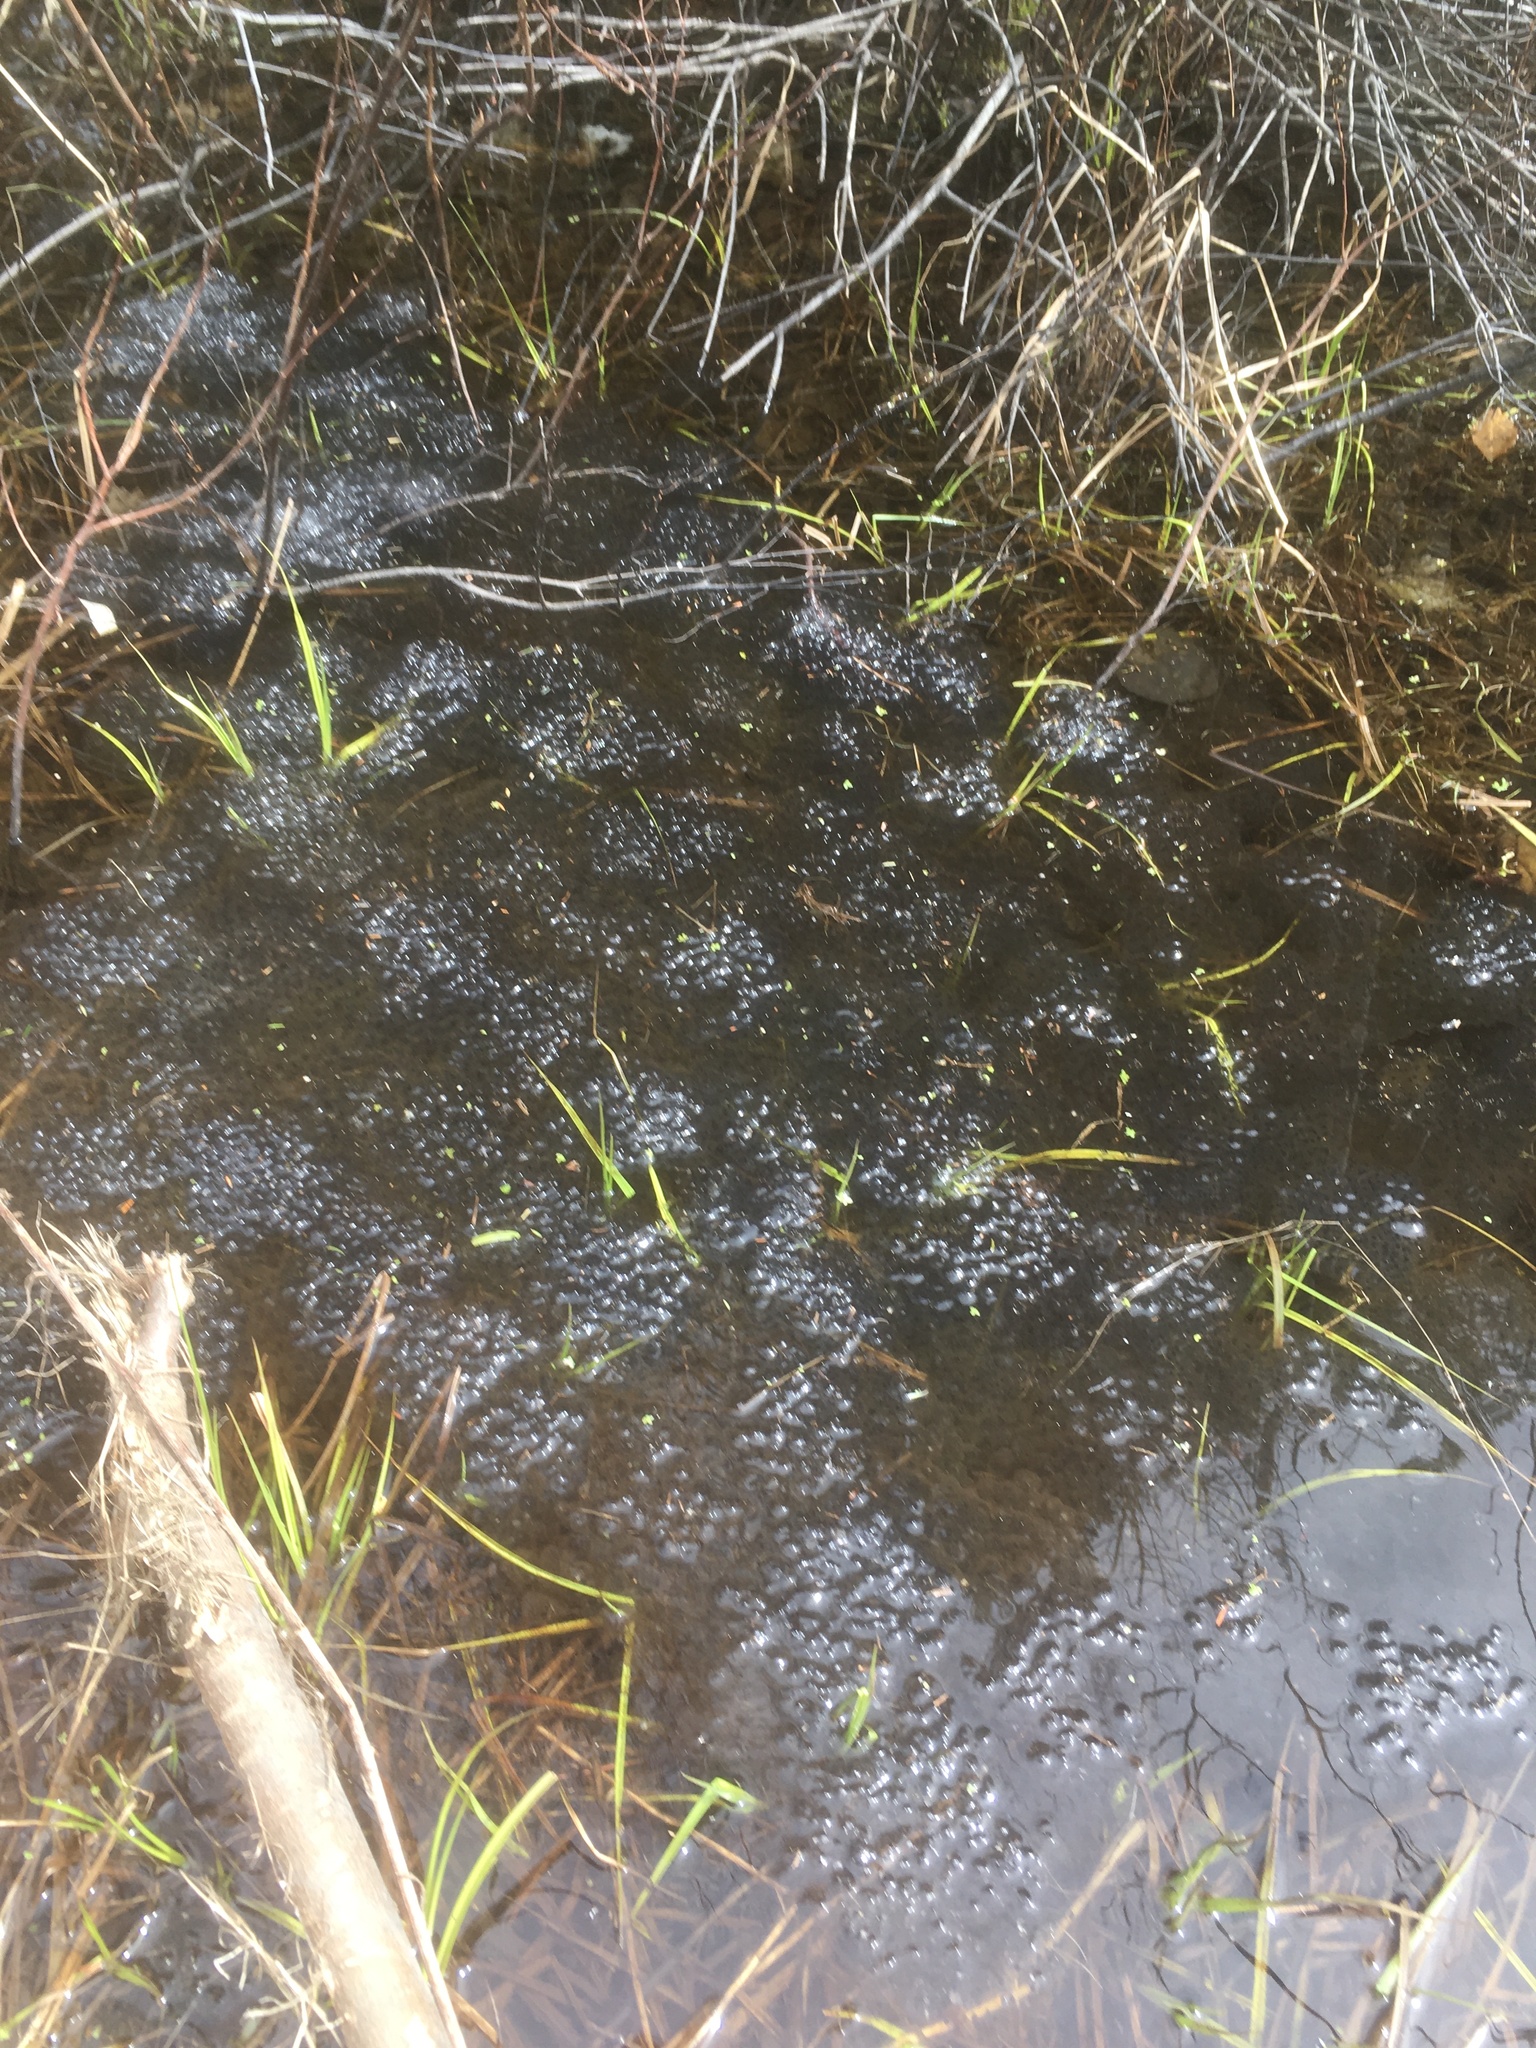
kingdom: Animalia
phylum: Chordata
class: Amphibia
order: Anura
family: Ranidae
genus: Lithobates
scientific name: Lithobates sylvaticus
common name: Wood frog
